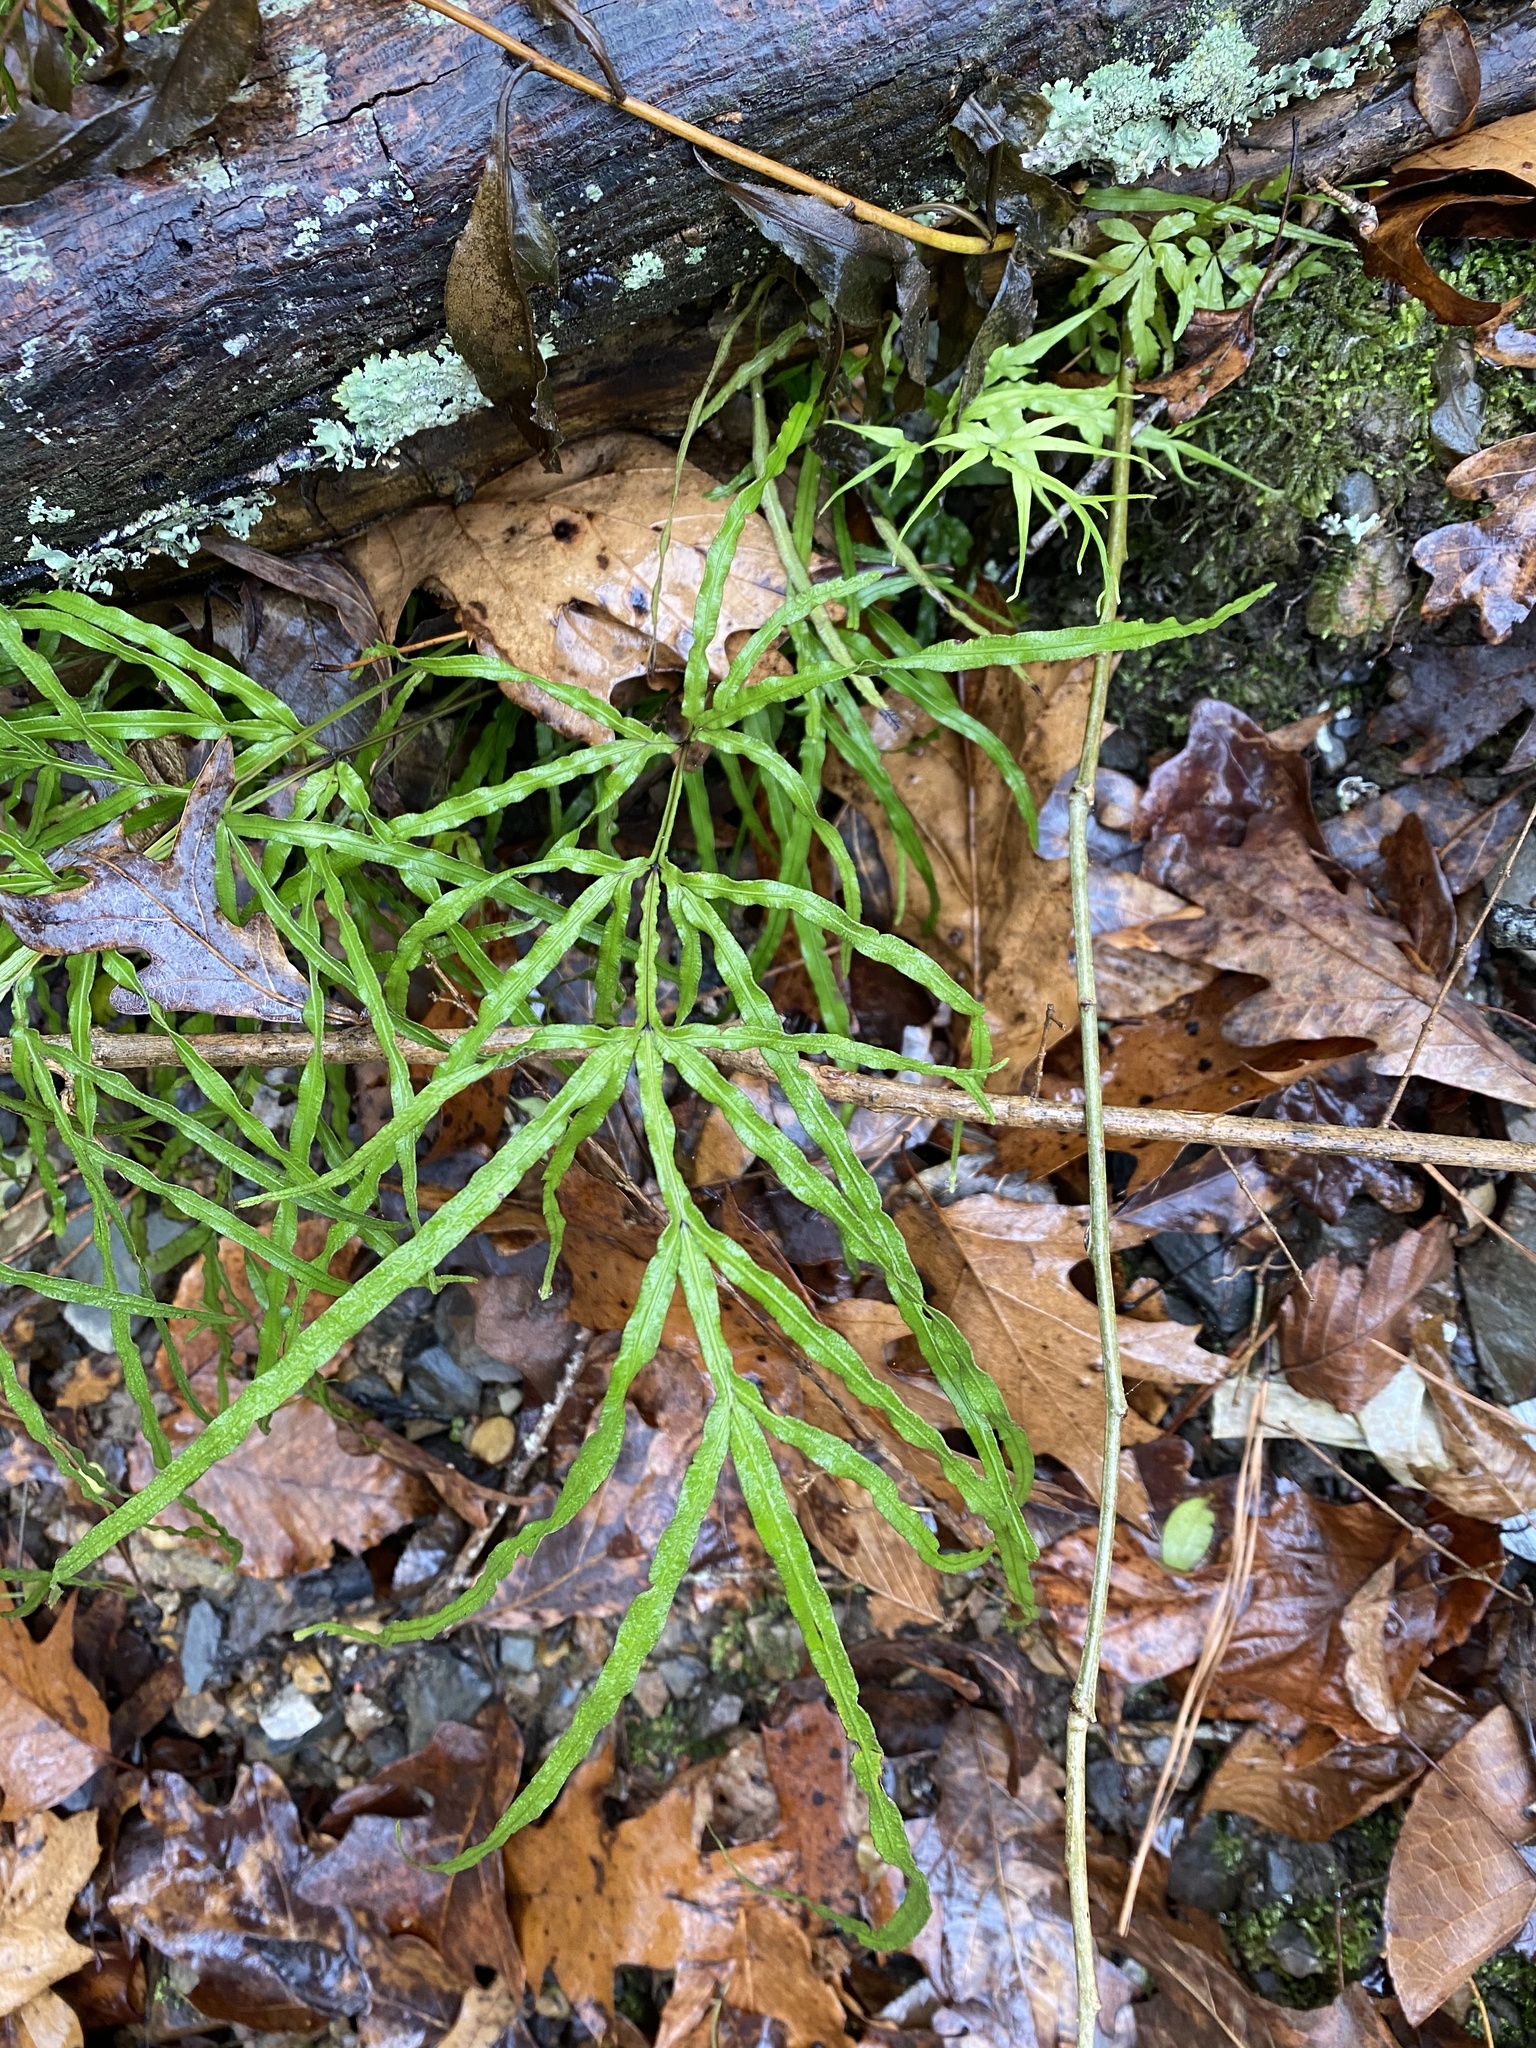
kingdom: Plantae
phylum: Tracheophyta
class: Polypodiopsida
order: Polypodiales
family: Pteridaceae
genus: Pteris
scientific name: Pteris multifida
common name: Spider brake
